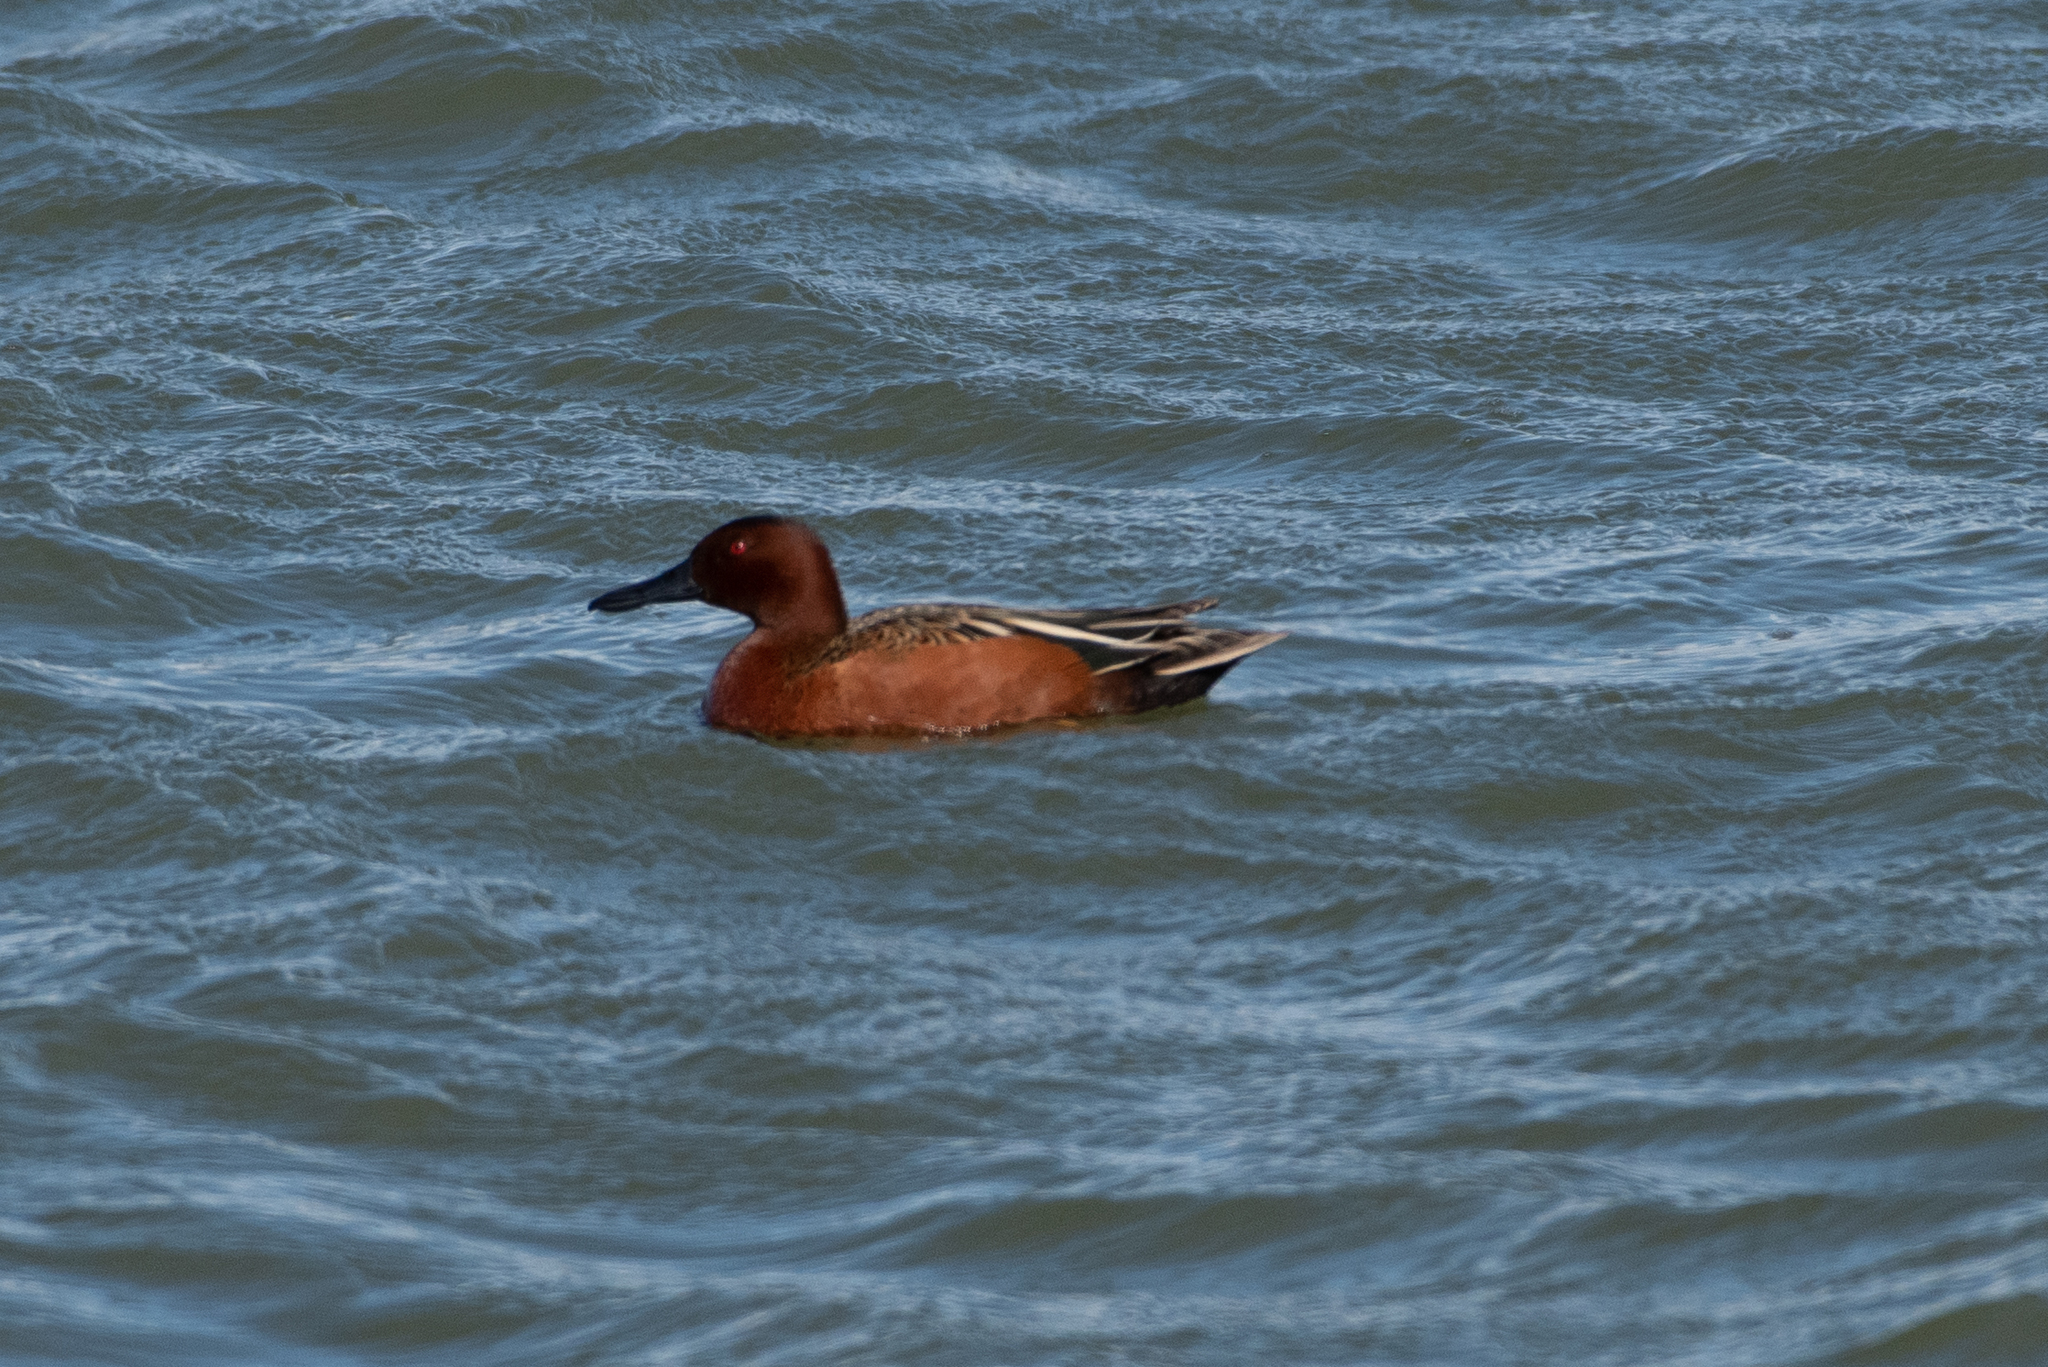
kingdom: Animalia
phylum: Chordata
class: Aves
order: Anseriformes
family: Anatidae
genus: Spatula
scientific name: Spatula cyanoptera
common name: Cinnamon teal
